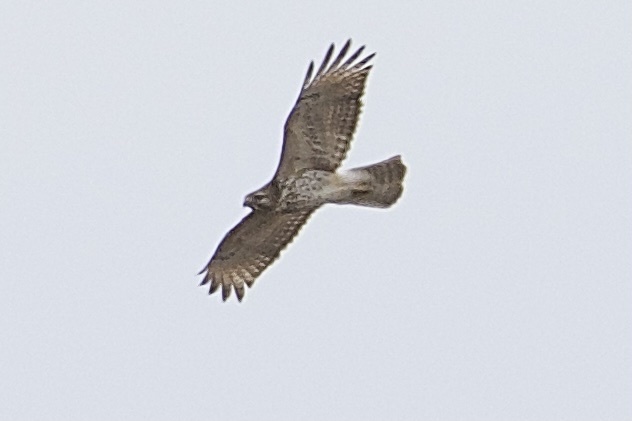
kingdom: Animalia
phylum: Chordata
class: Aves
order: Accipitriformes
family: Accipitridae
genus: Buteo
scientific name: Buteo lineatus
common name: Red-shouldered hawk
